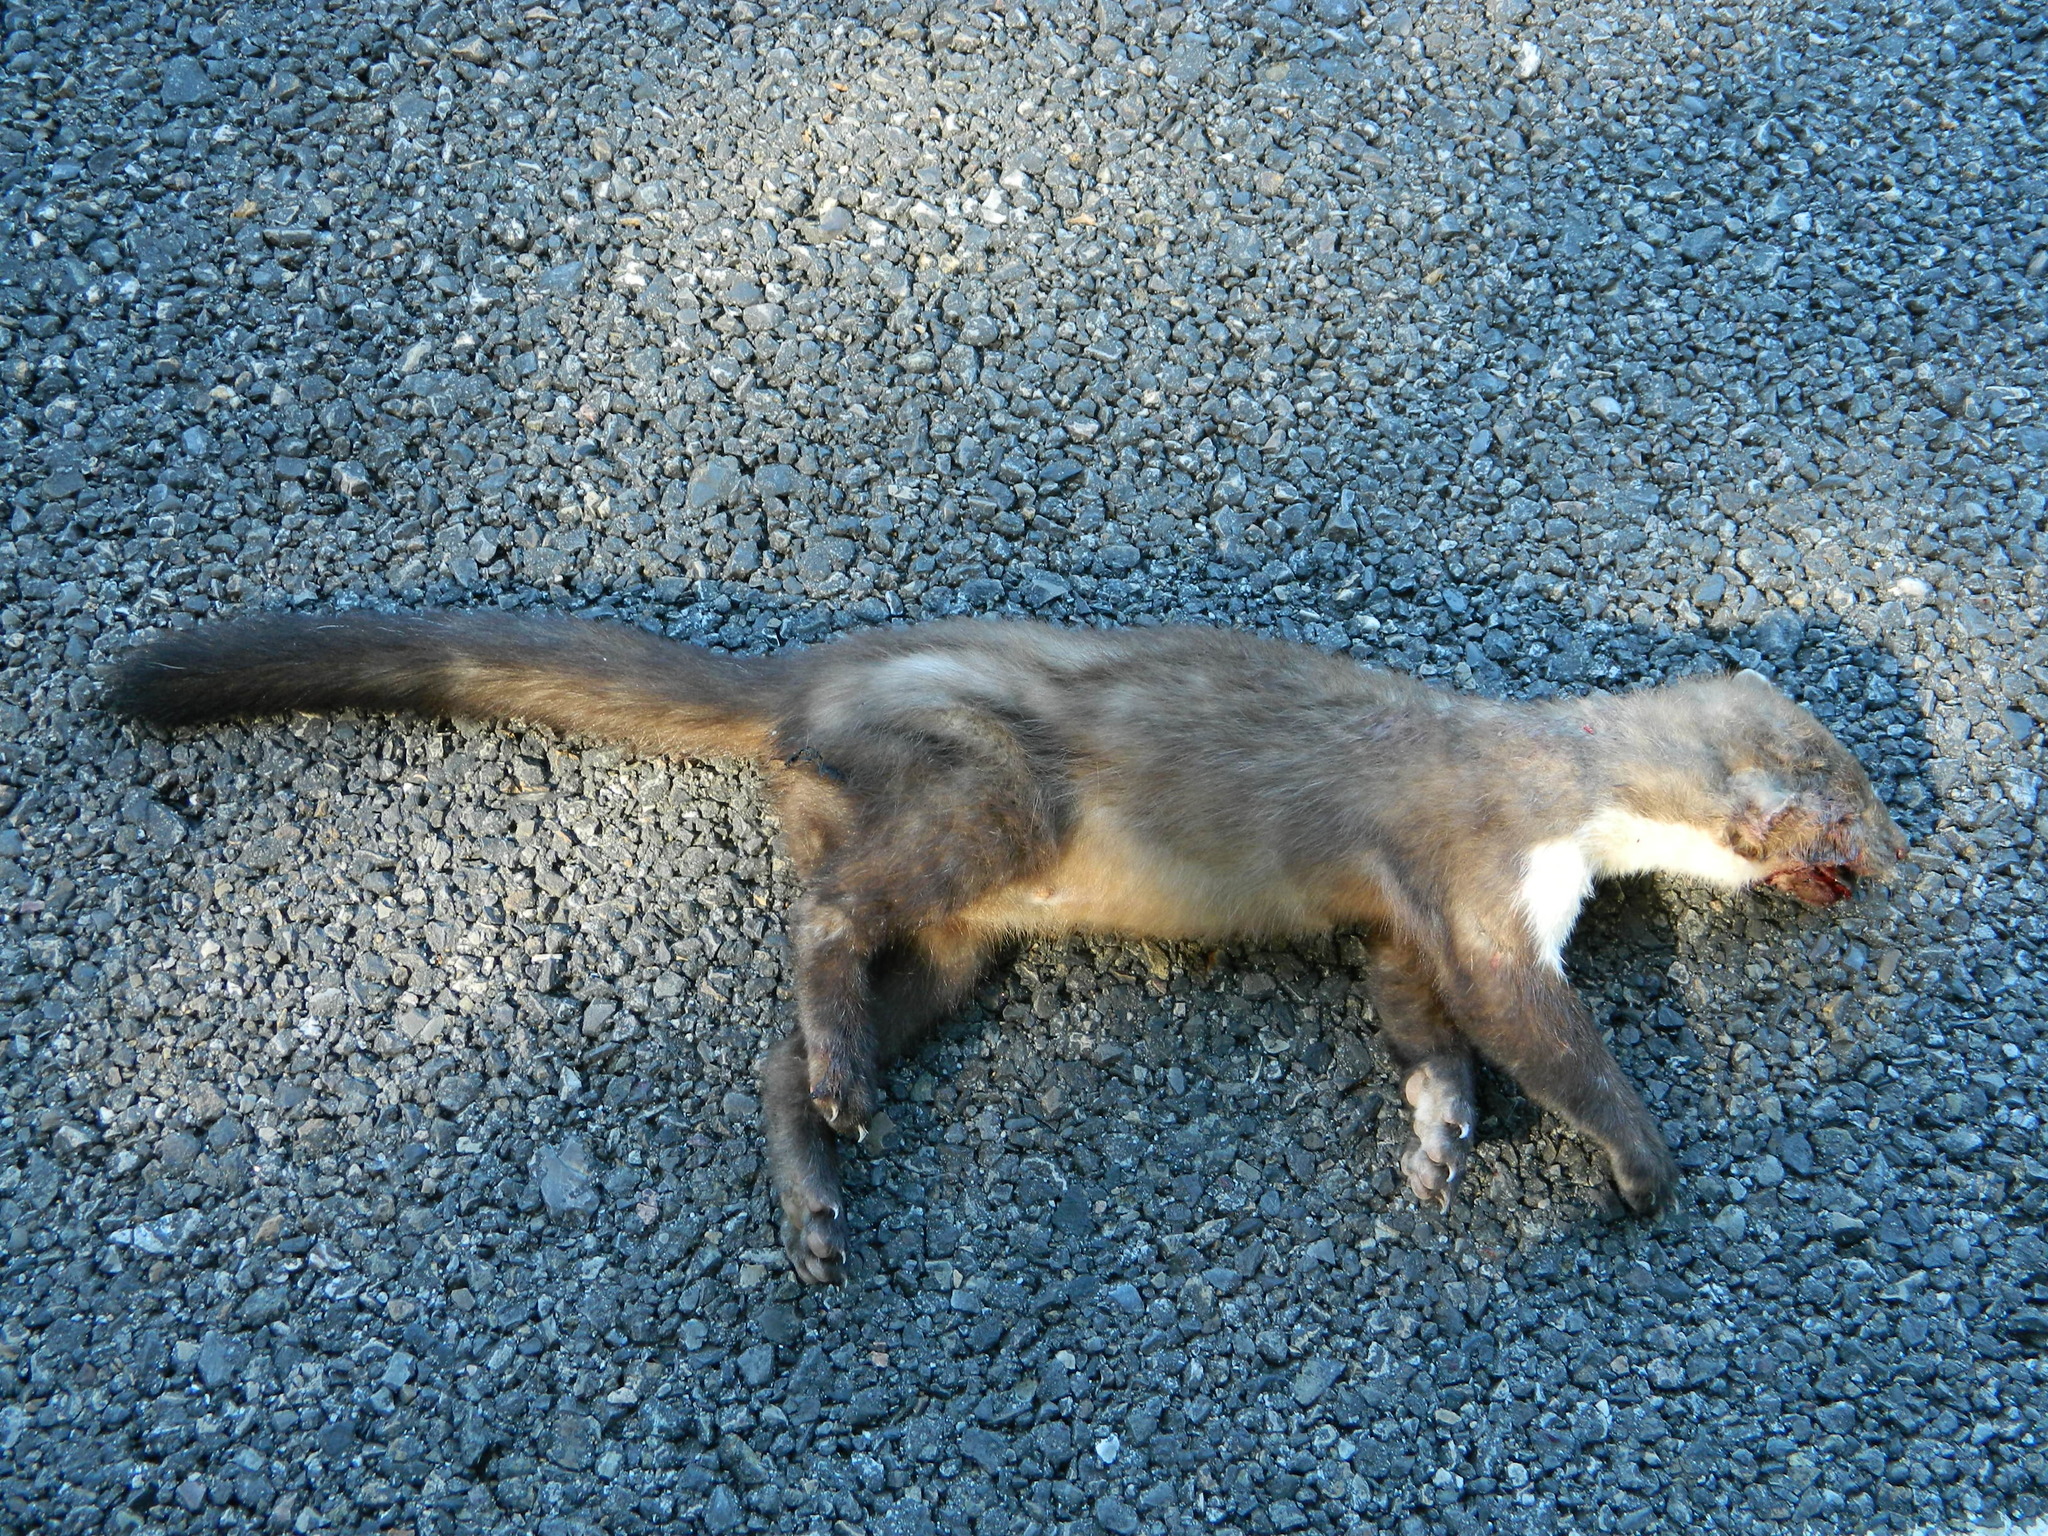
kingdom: Animalia
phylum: Chordata
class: Mammalia
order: Carnivora
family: Mustelidae
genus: Martes
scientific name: Martes foina
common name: Beech marten
